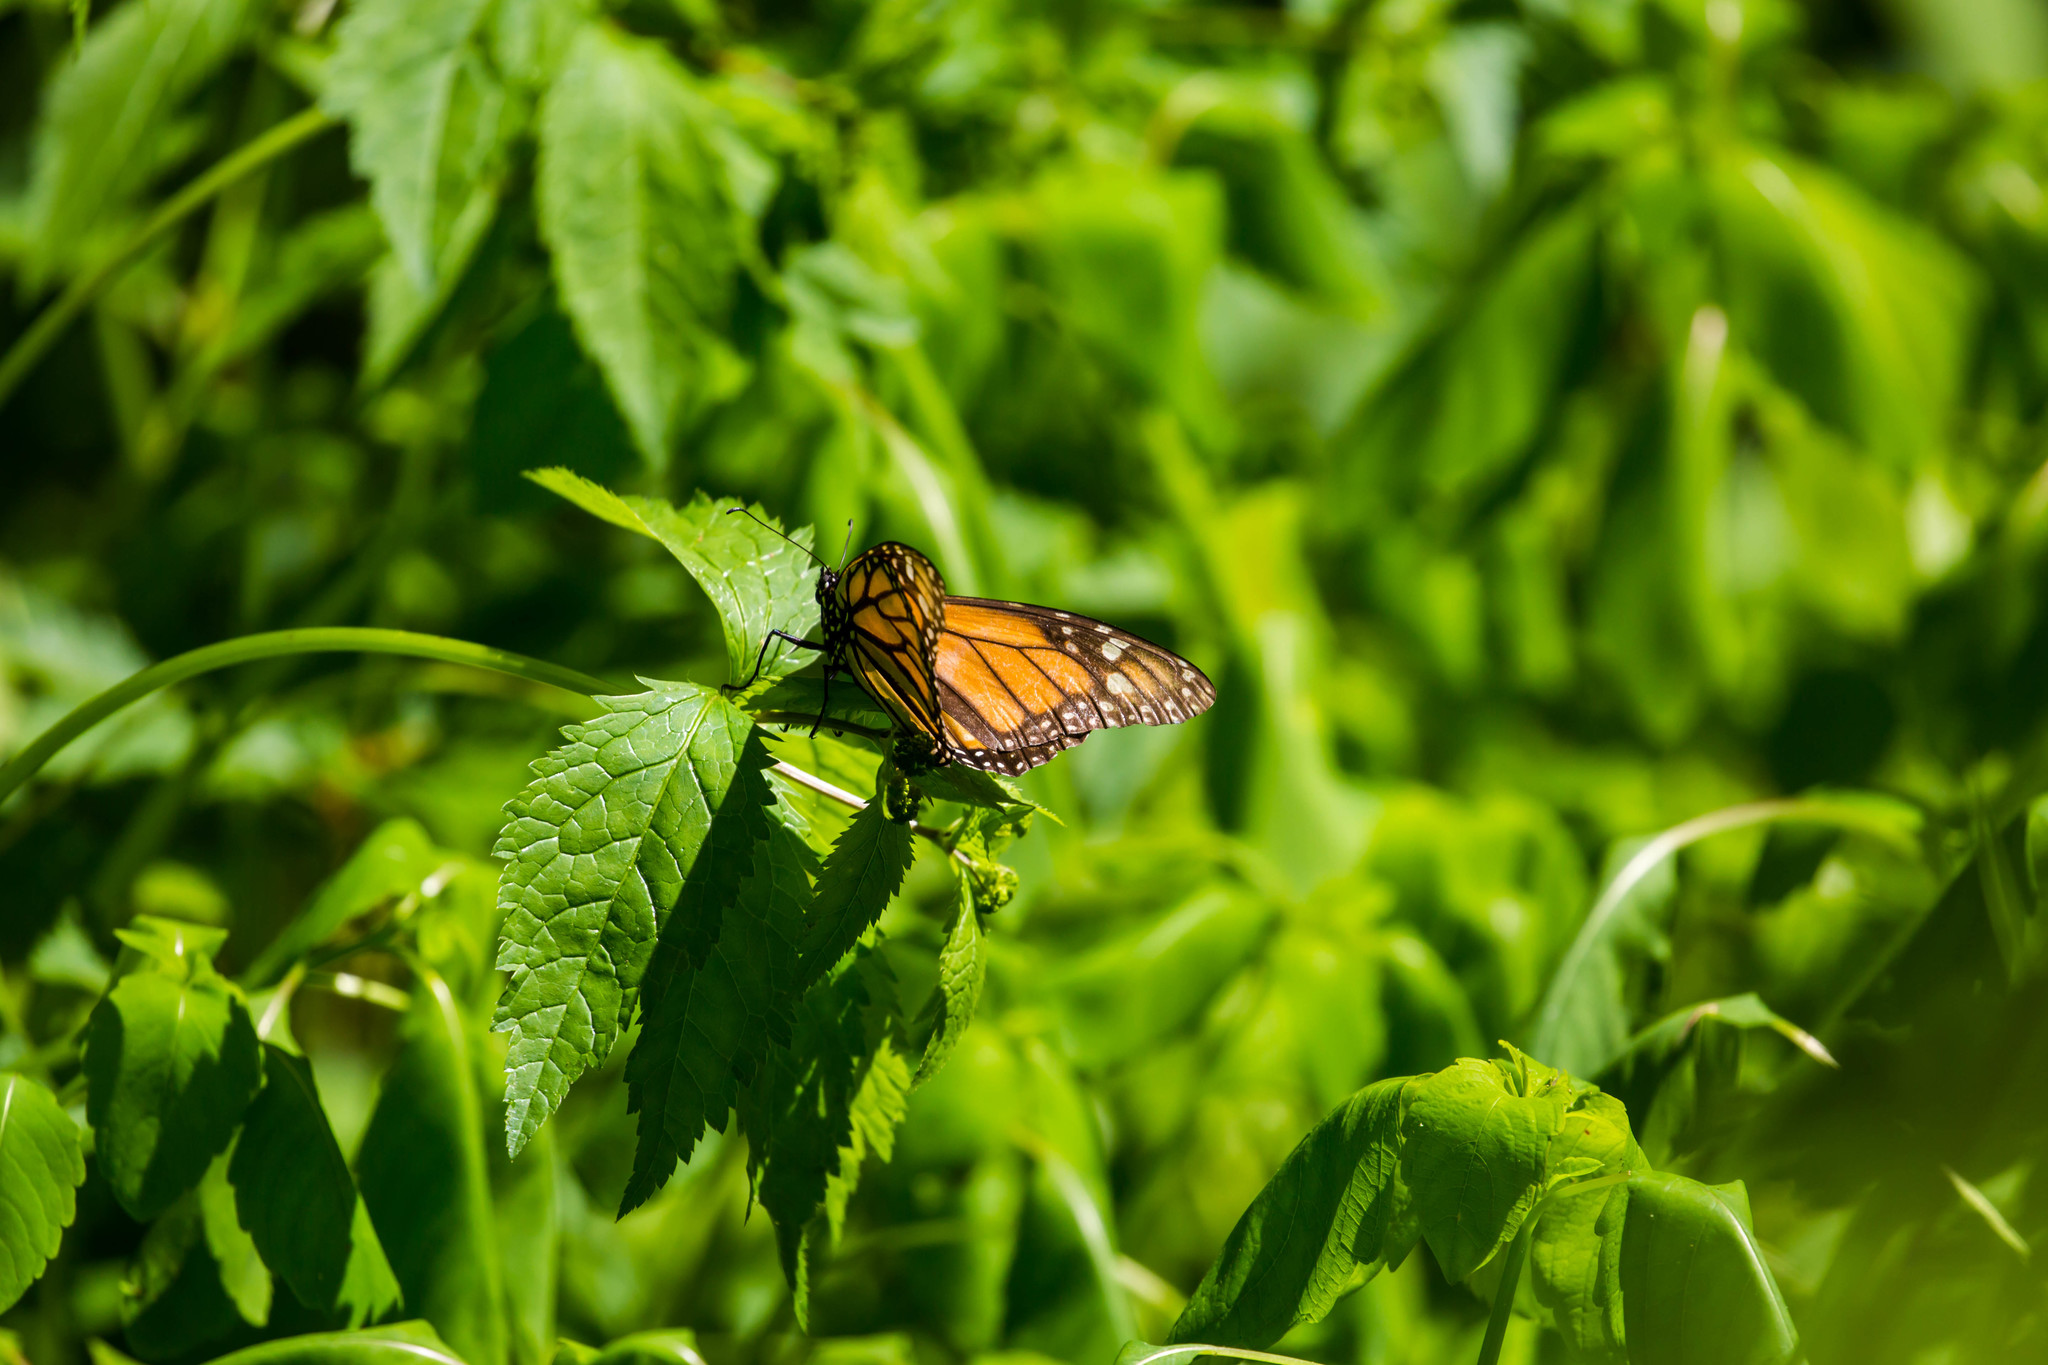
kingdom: Animalia
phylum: Arthropoda
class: Insecta
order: Lepidoptera
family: Nymphalidae
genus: Danaus
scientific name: Danaus plexippus
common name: Monarch
